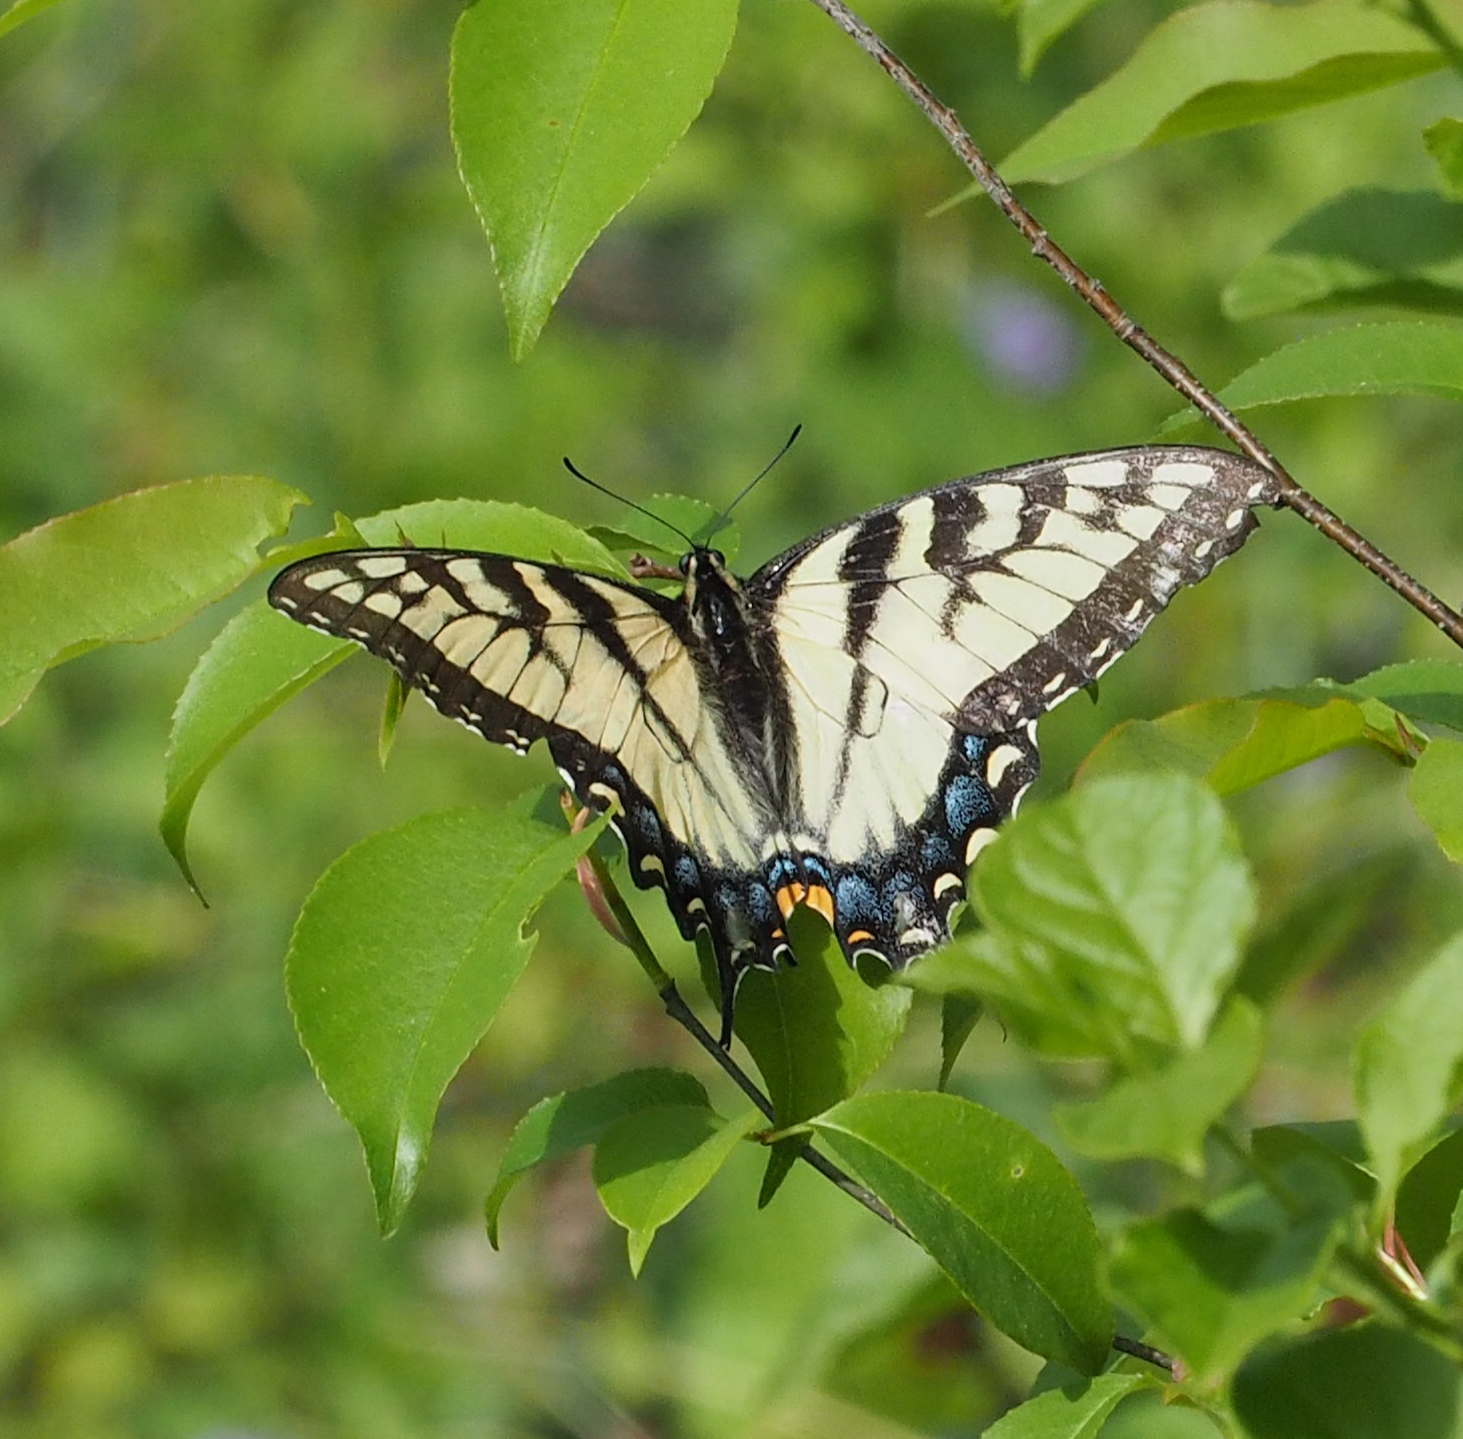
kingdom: Animalia
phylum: Arthropoda
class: Insecta
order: Lepidoptera
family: Papilionidae
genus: Papilio
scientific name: Papilio glaucus
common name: Tiger swallowtail
